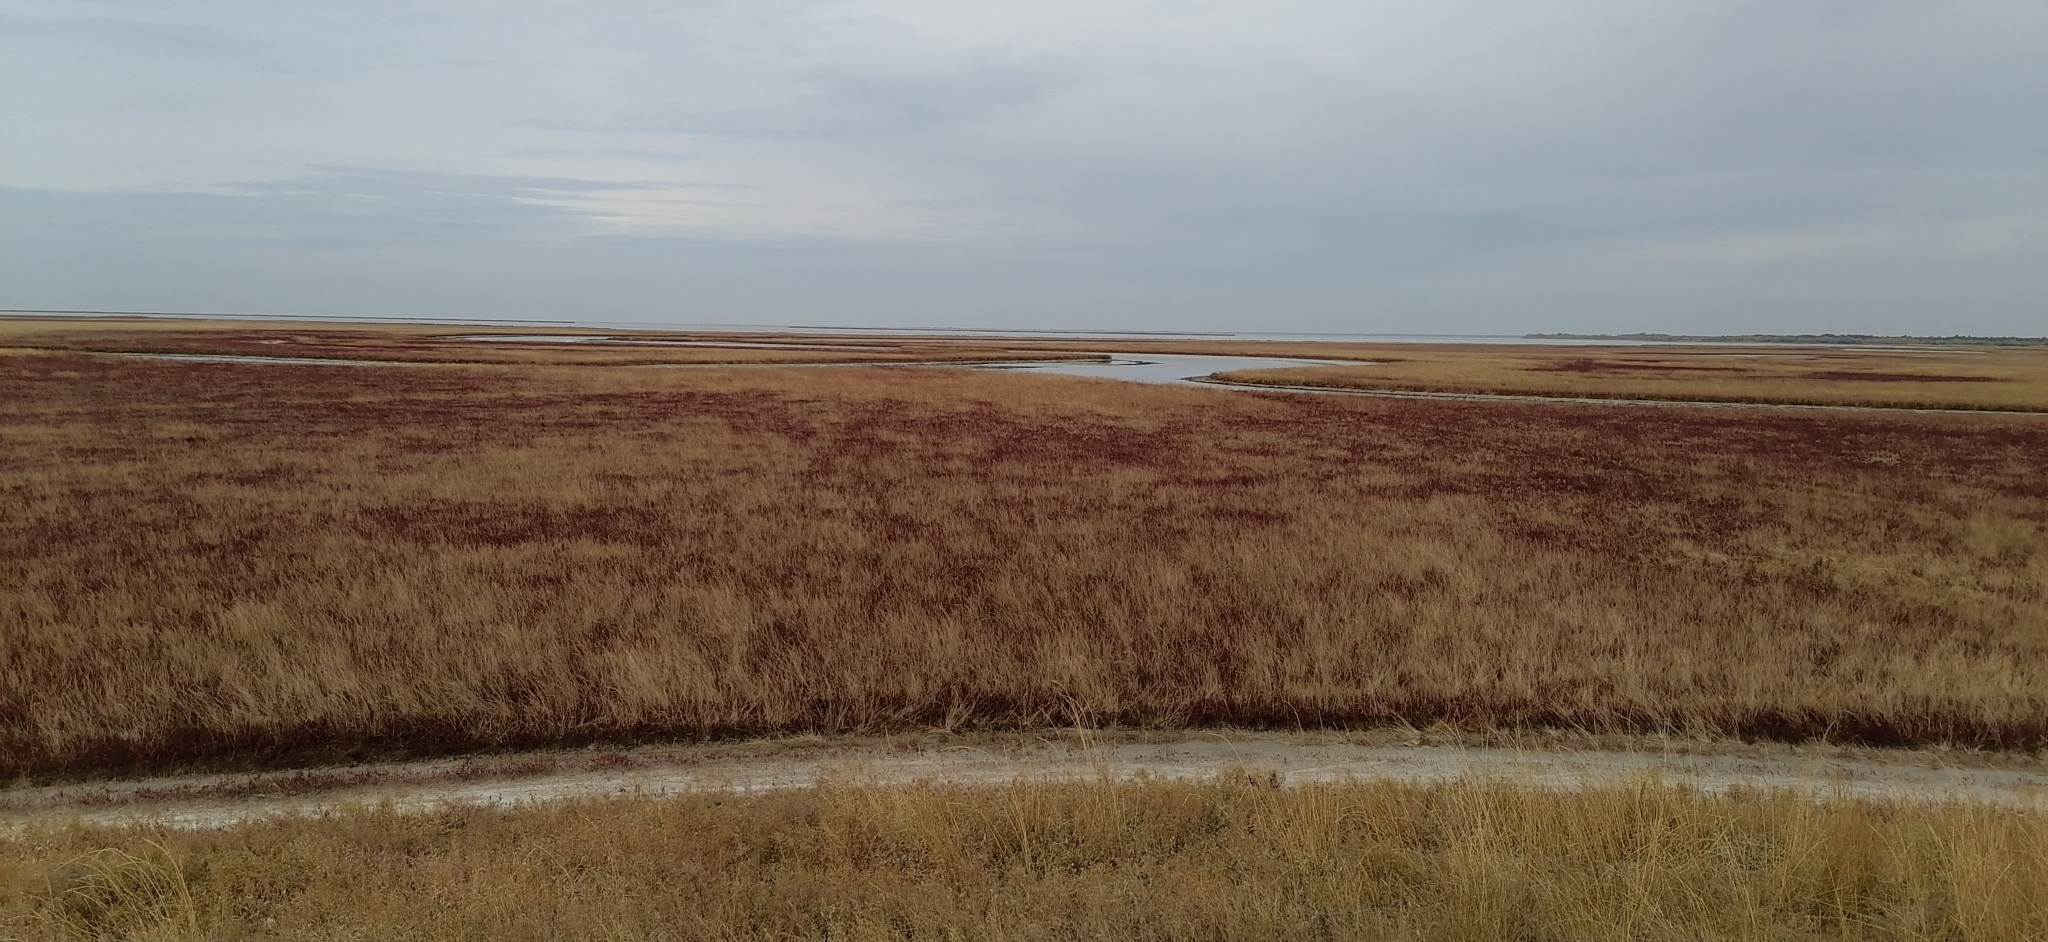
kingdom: Plantae
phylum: Tracheophyta
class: Magnoliopsida
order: Caryophyllales
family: Amaranthaceae
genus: Salicornia
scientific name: Salicornia perennans
